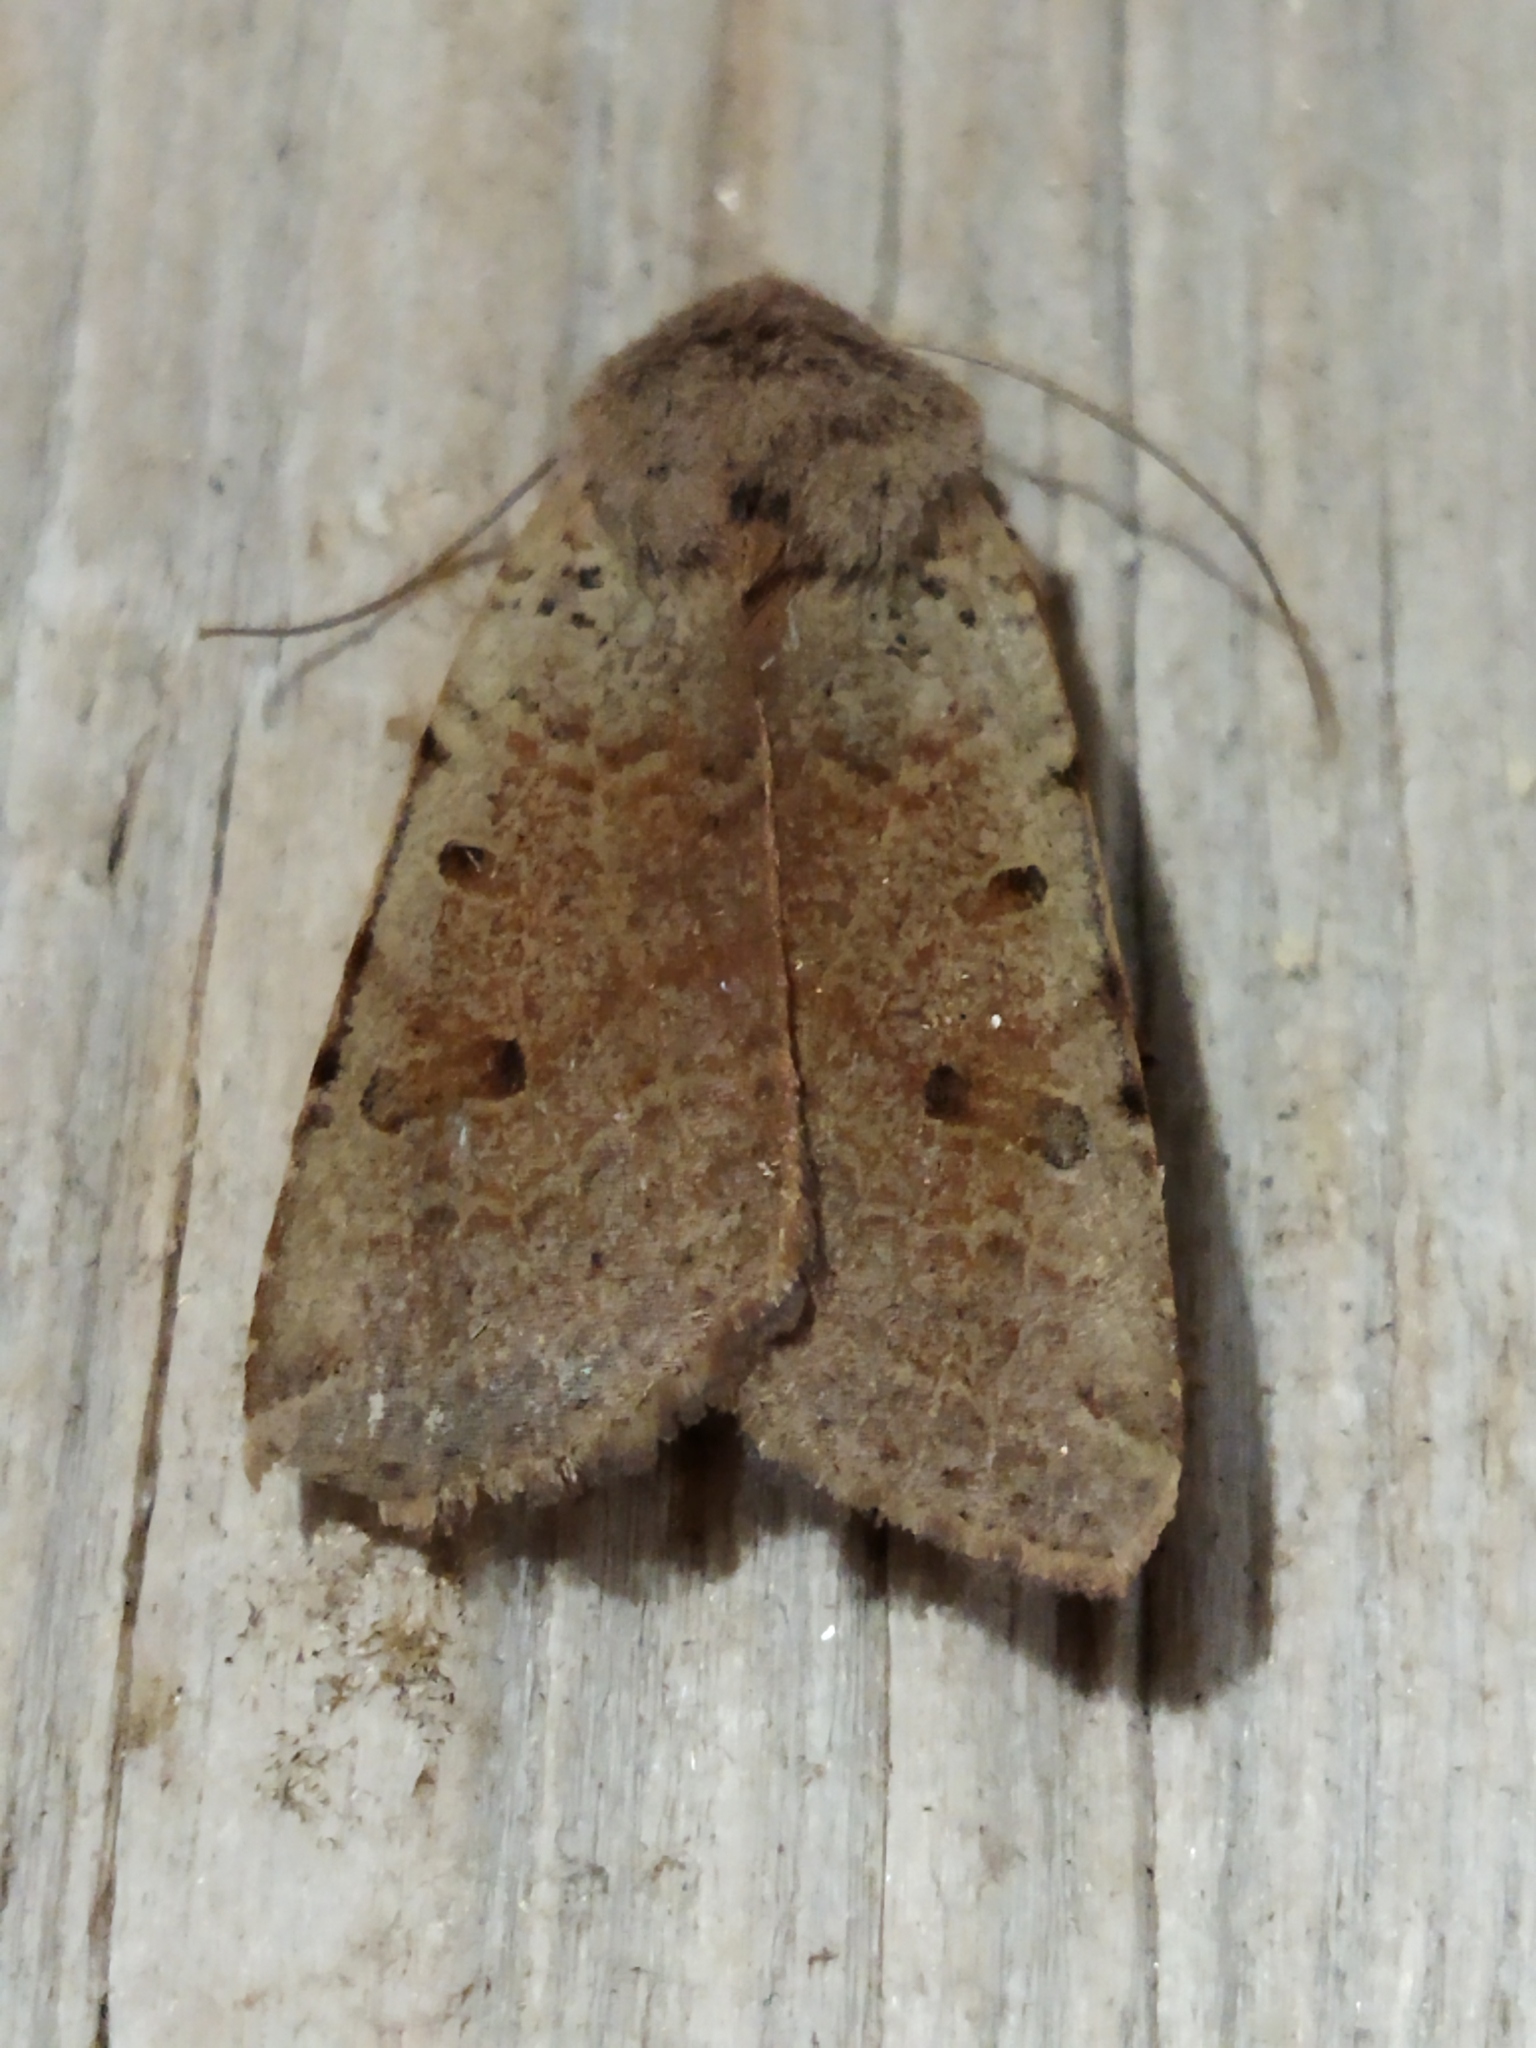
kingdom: Animalia
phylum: Arthropoda
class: Insecta
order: Lepidoptera
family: Noctuidae
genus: Agrochola
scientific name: Agrochola lychnidis
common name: Beaded chestnut
